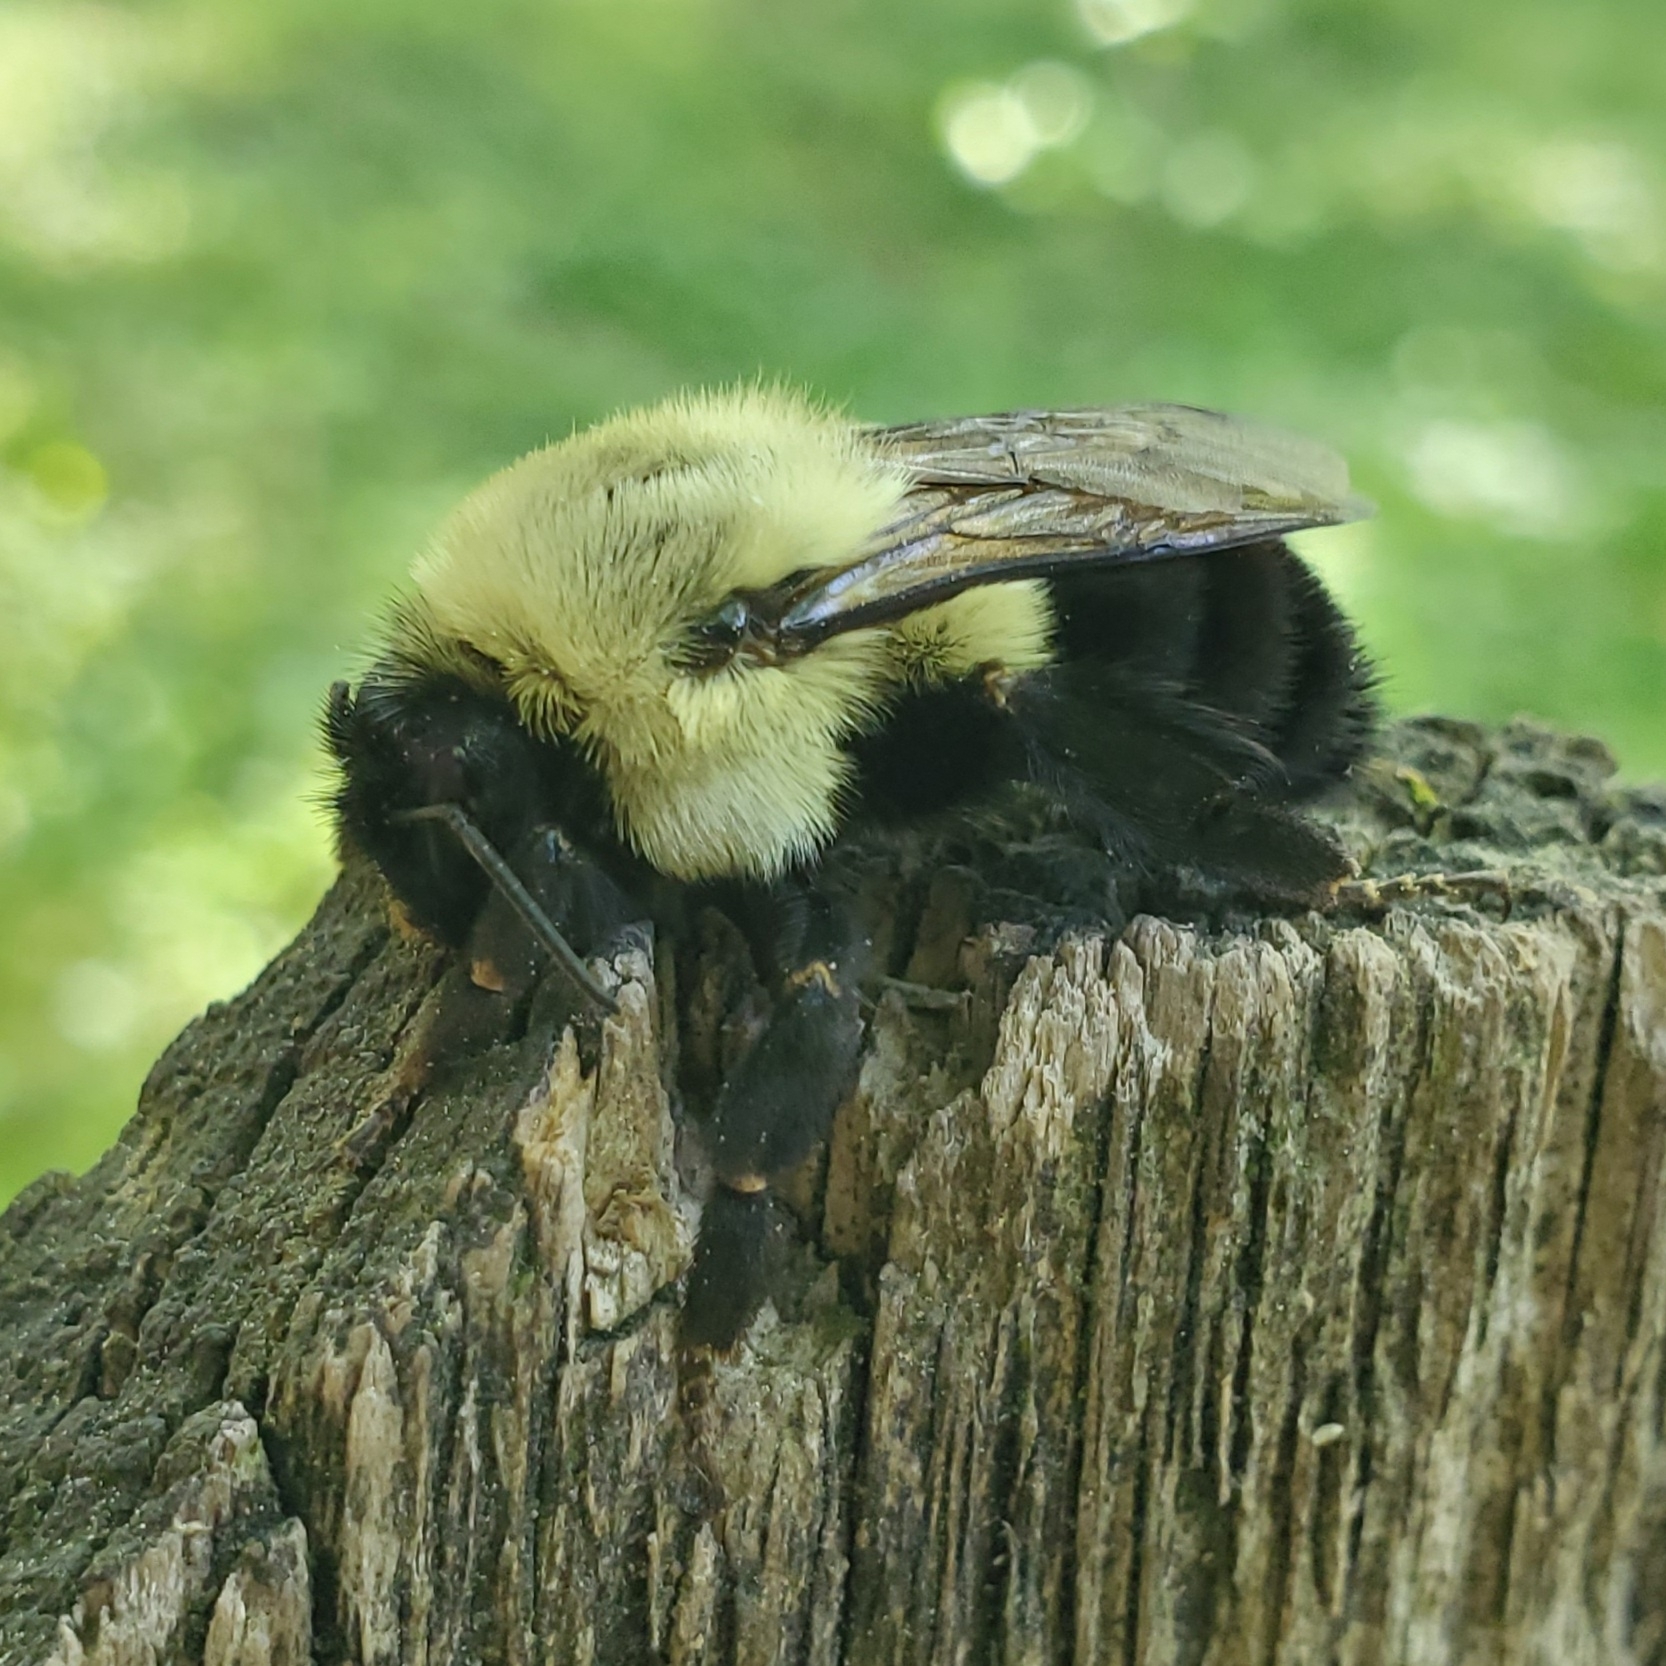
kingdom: Animalia
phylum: Arthropoda
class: Insecta
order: Hymenoptera
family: Apidae
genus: Bombus
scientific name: Bombus impatiens
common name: Common eastern bumble bee
